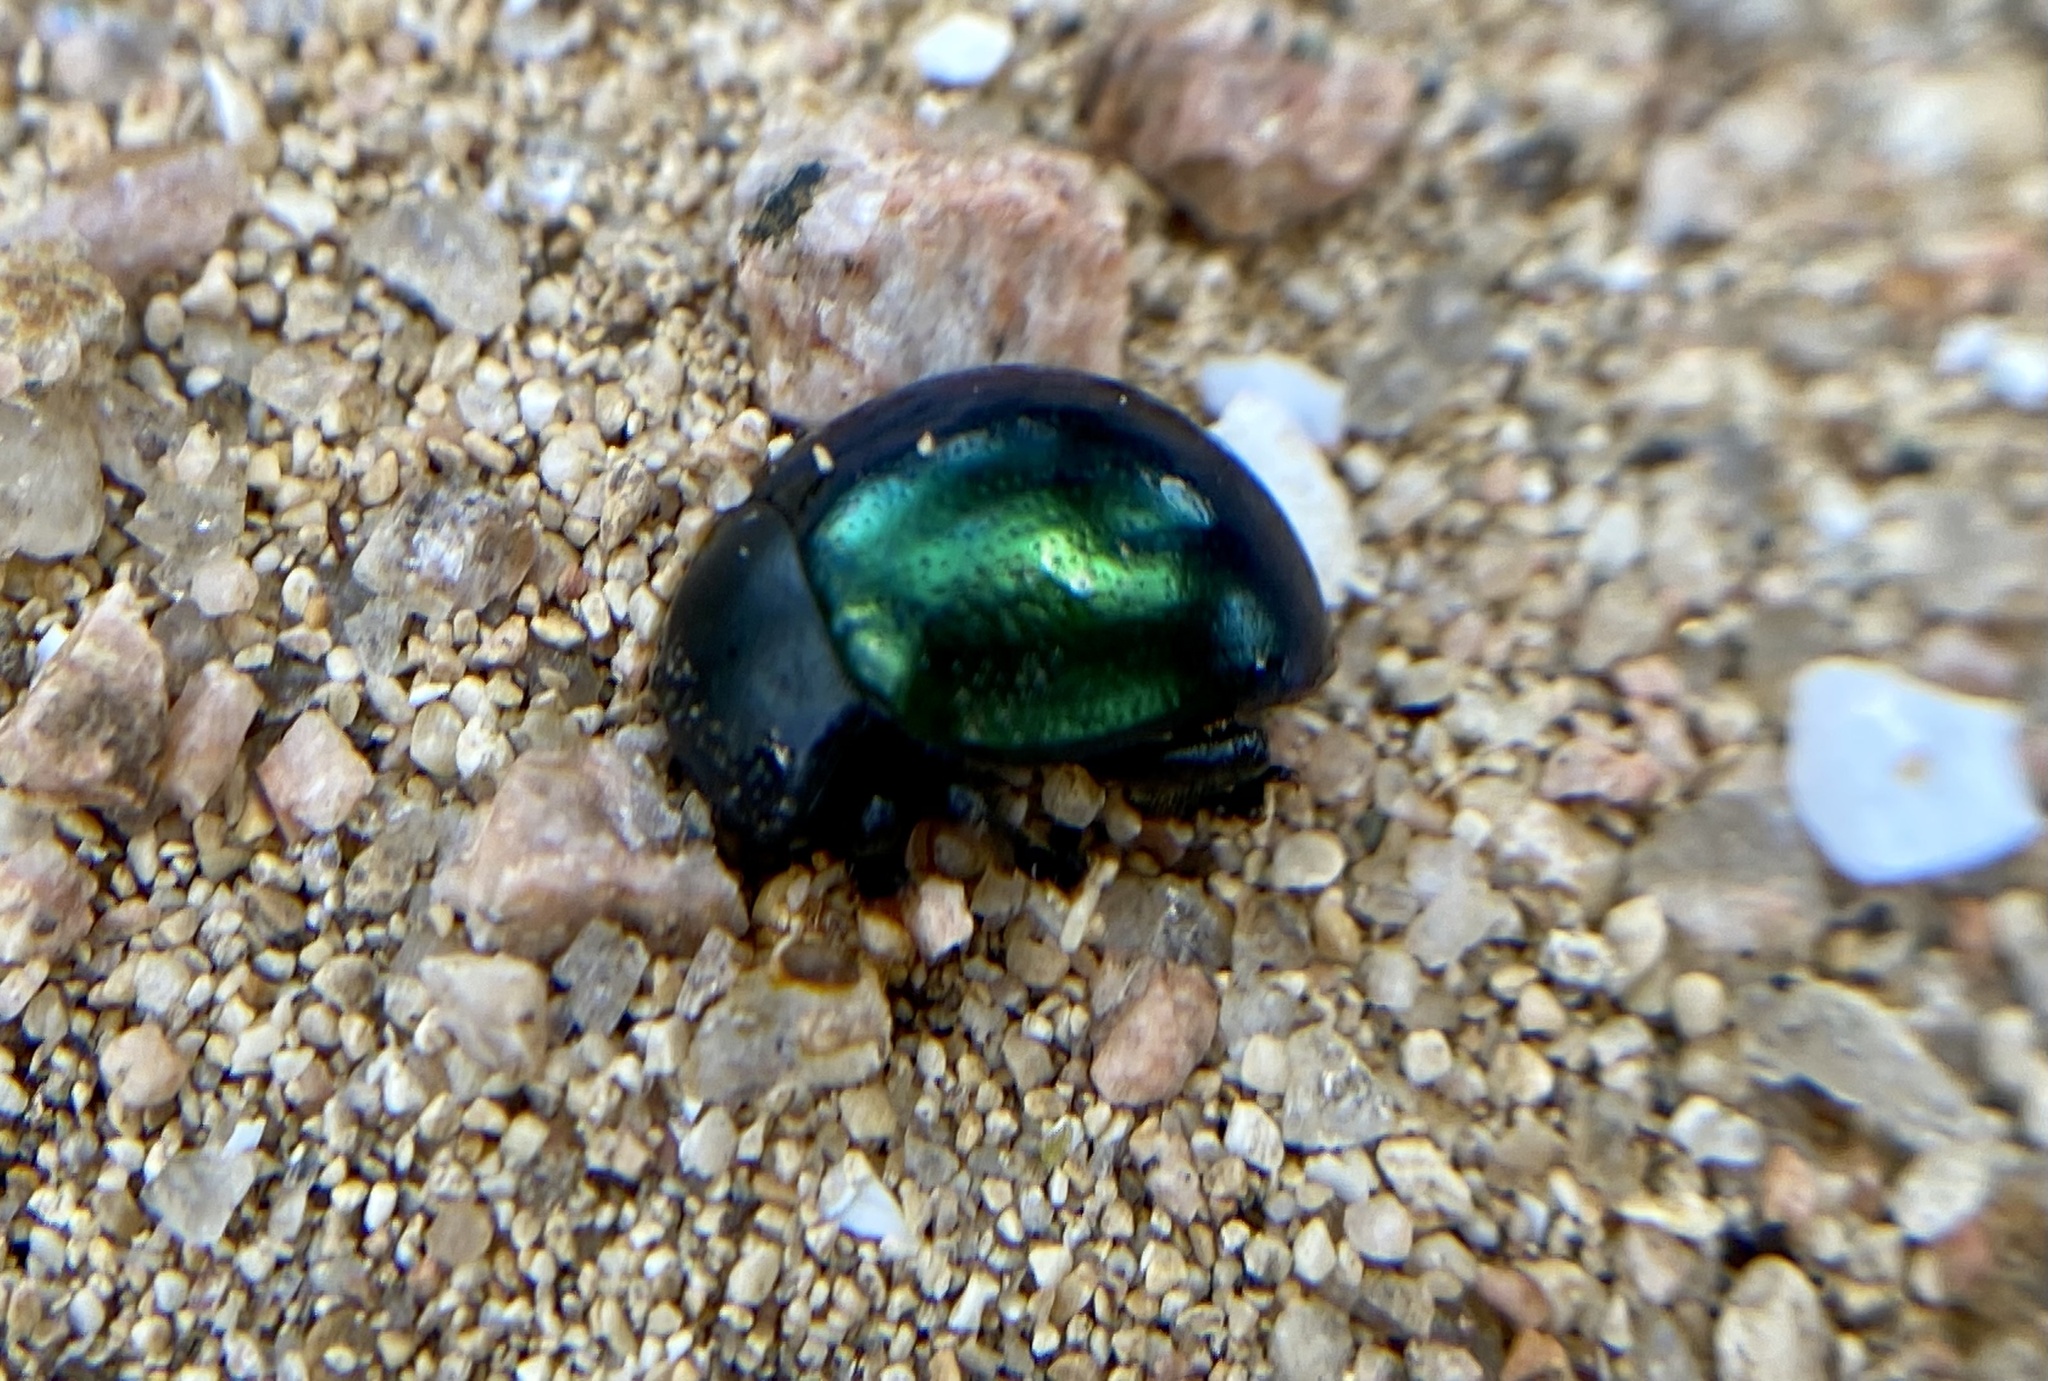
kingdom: Animalia
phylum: Arthropoda
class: Insecta
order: Coleoptera
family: Chrysomelidae
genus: Leptinotarsa
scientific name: Leptinotarsa haldemani
